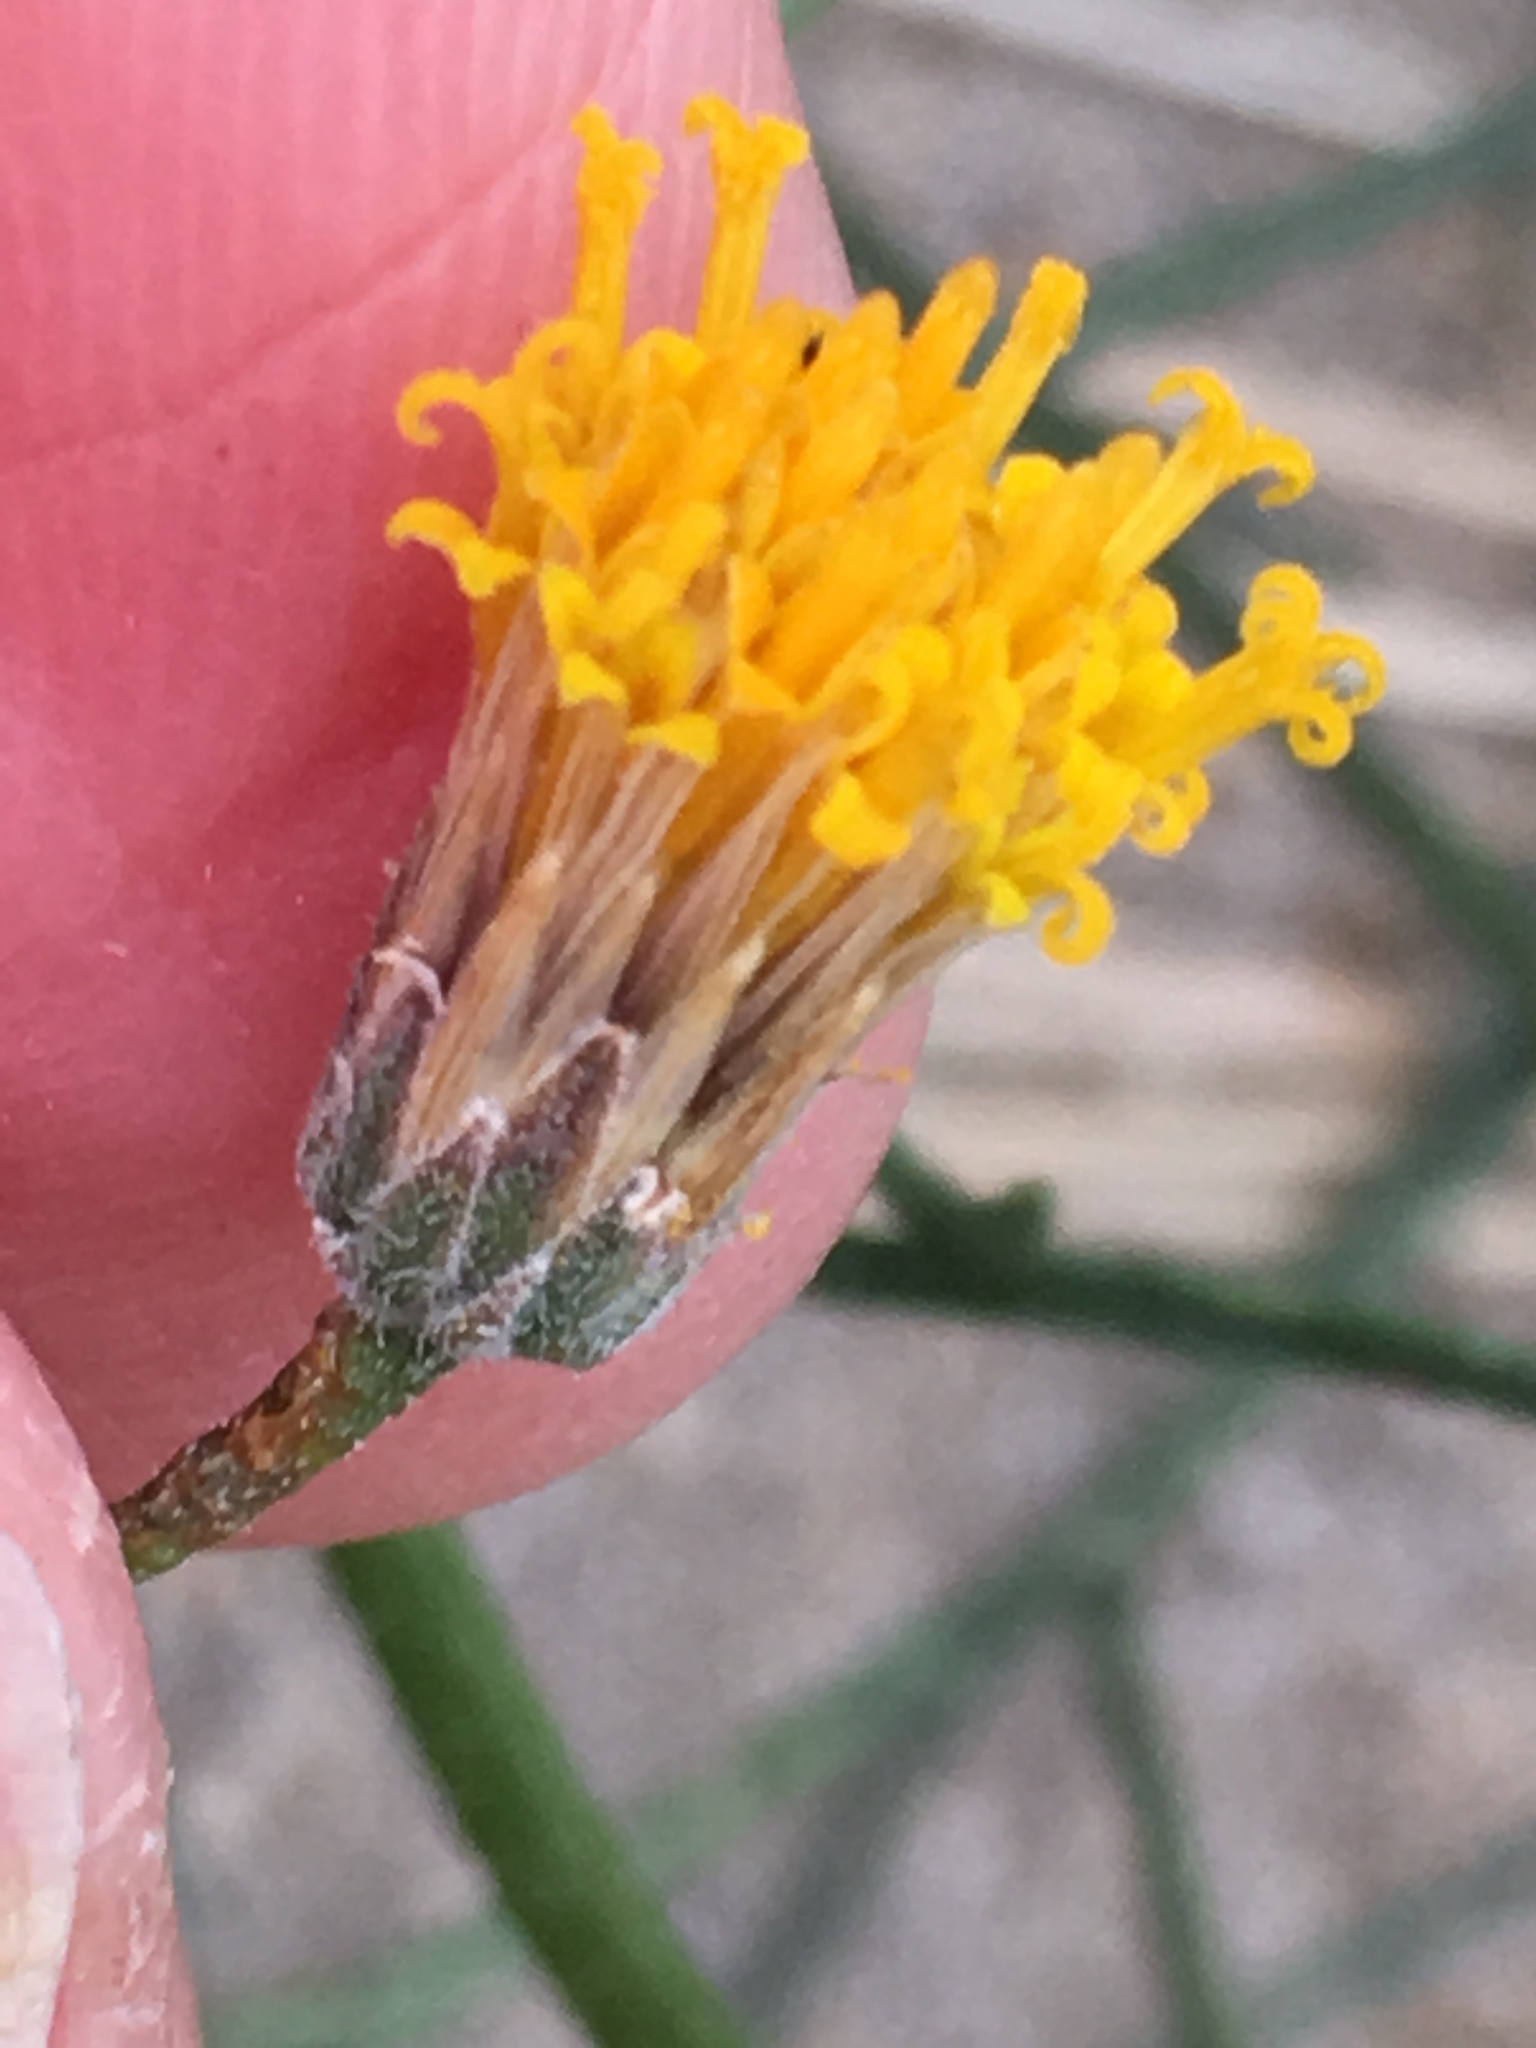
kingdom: Plantae
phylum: Tracheophyta
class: Magnoliopsida
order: Asterales
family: Asteraceae
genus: Bebbia
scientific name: Bebbia juncea
